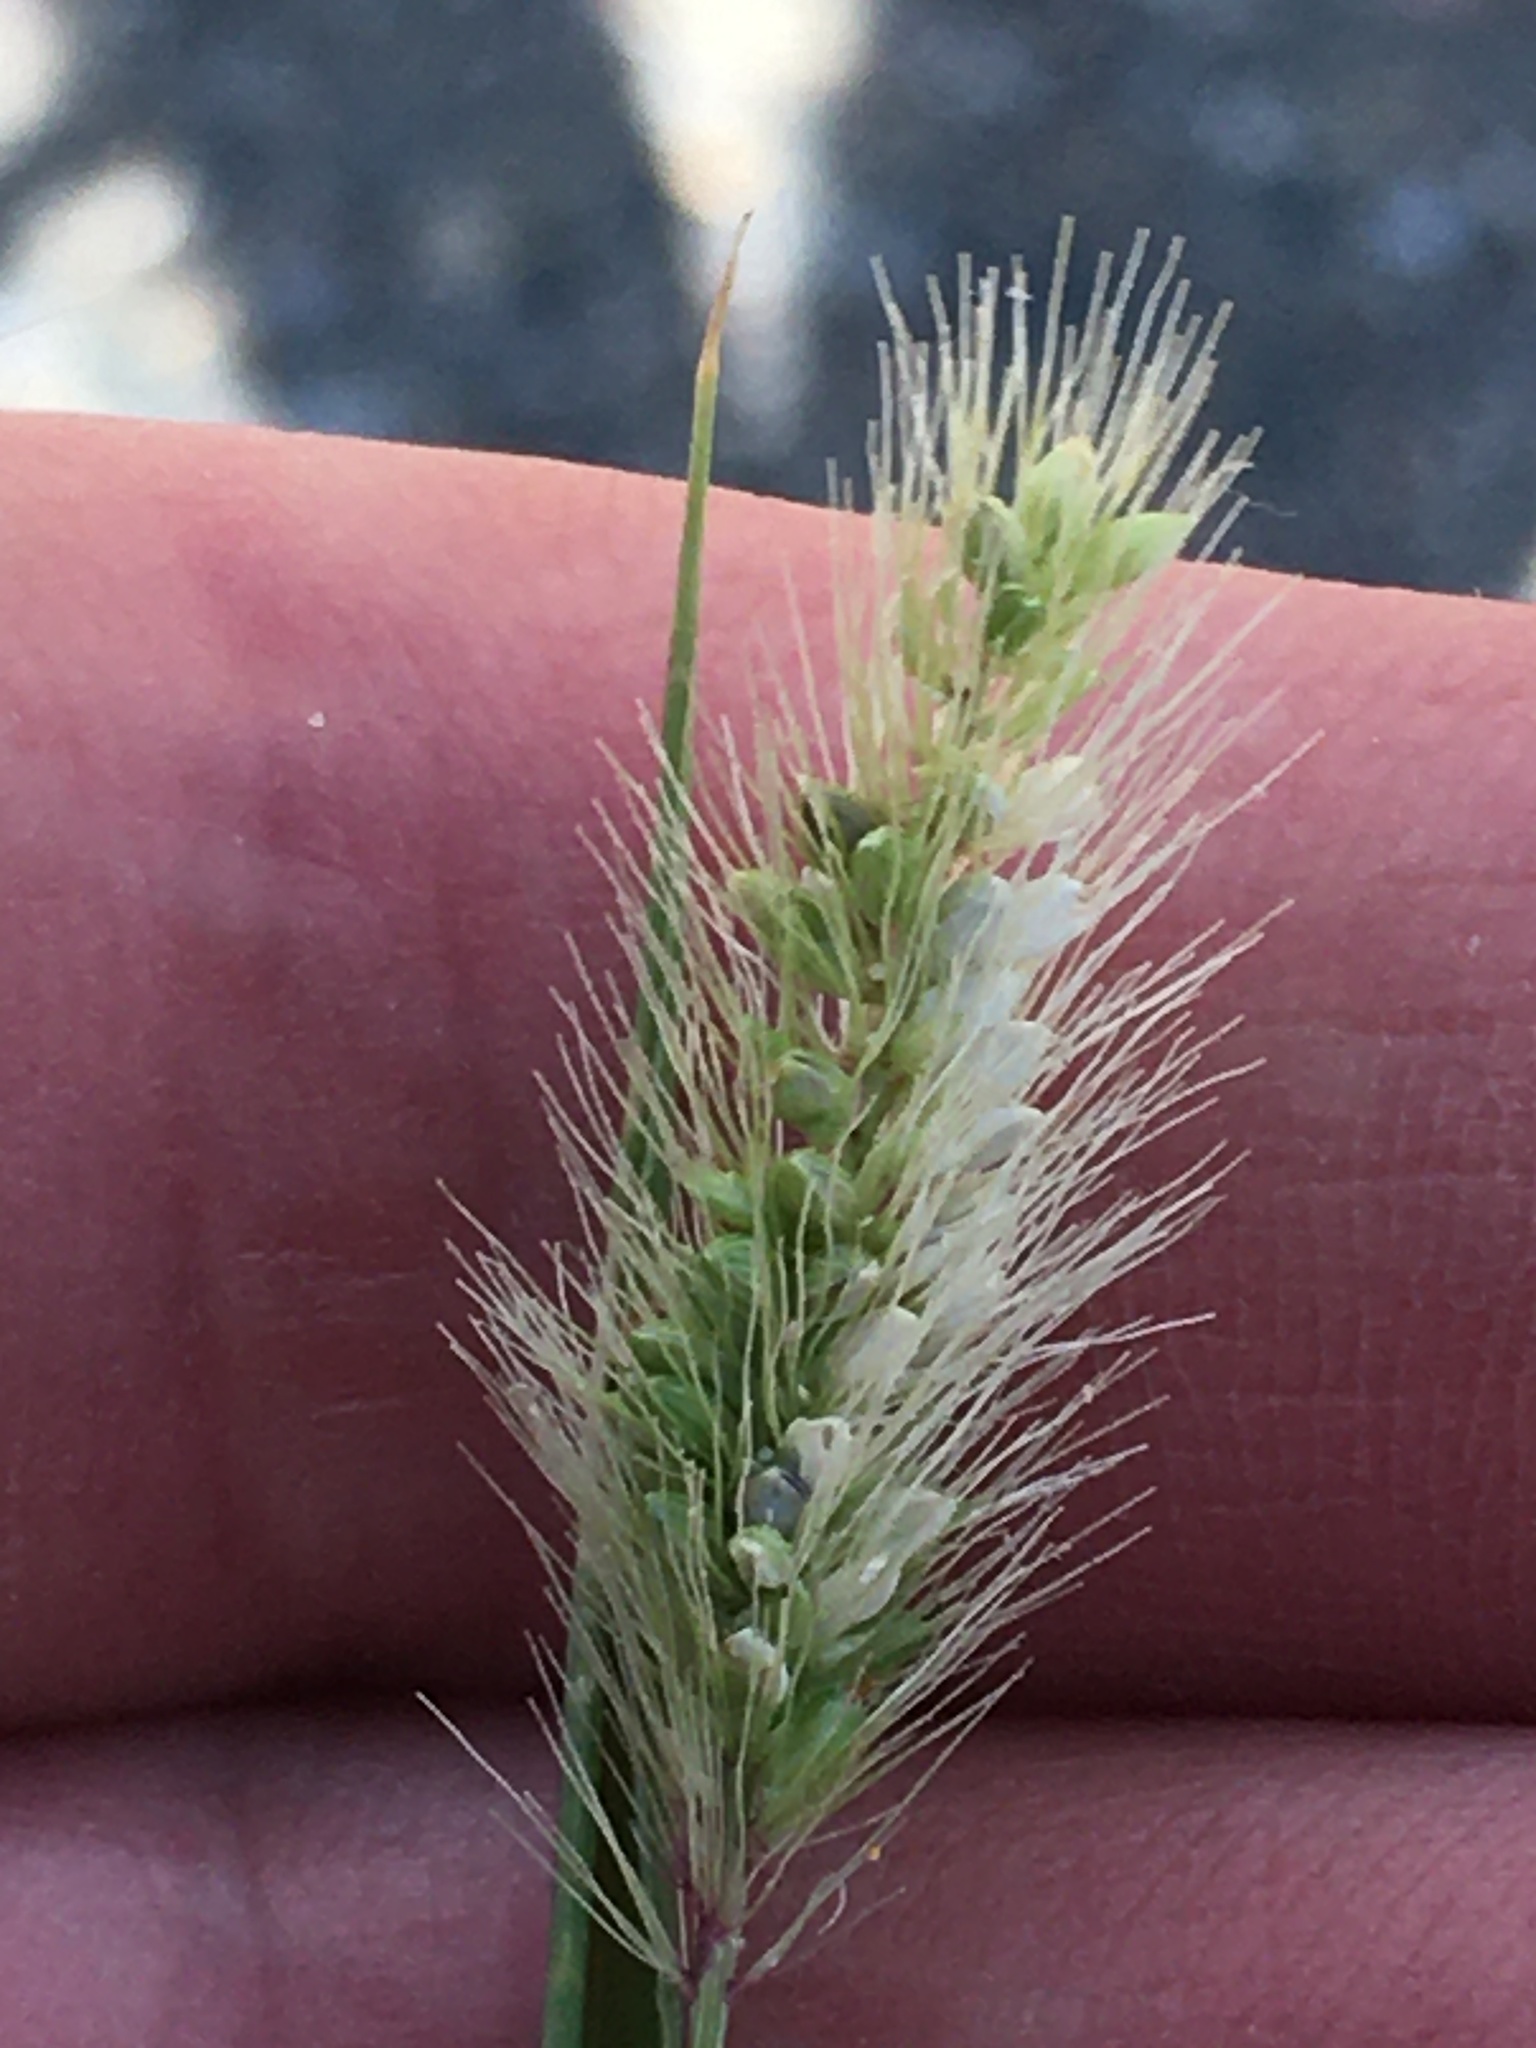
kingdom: Plantae
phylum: Tracheophyta
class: Liliopsida
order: Poales
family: Poaceae
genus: Setaria
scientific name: Setaria viridis
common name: Green bristlegrass
